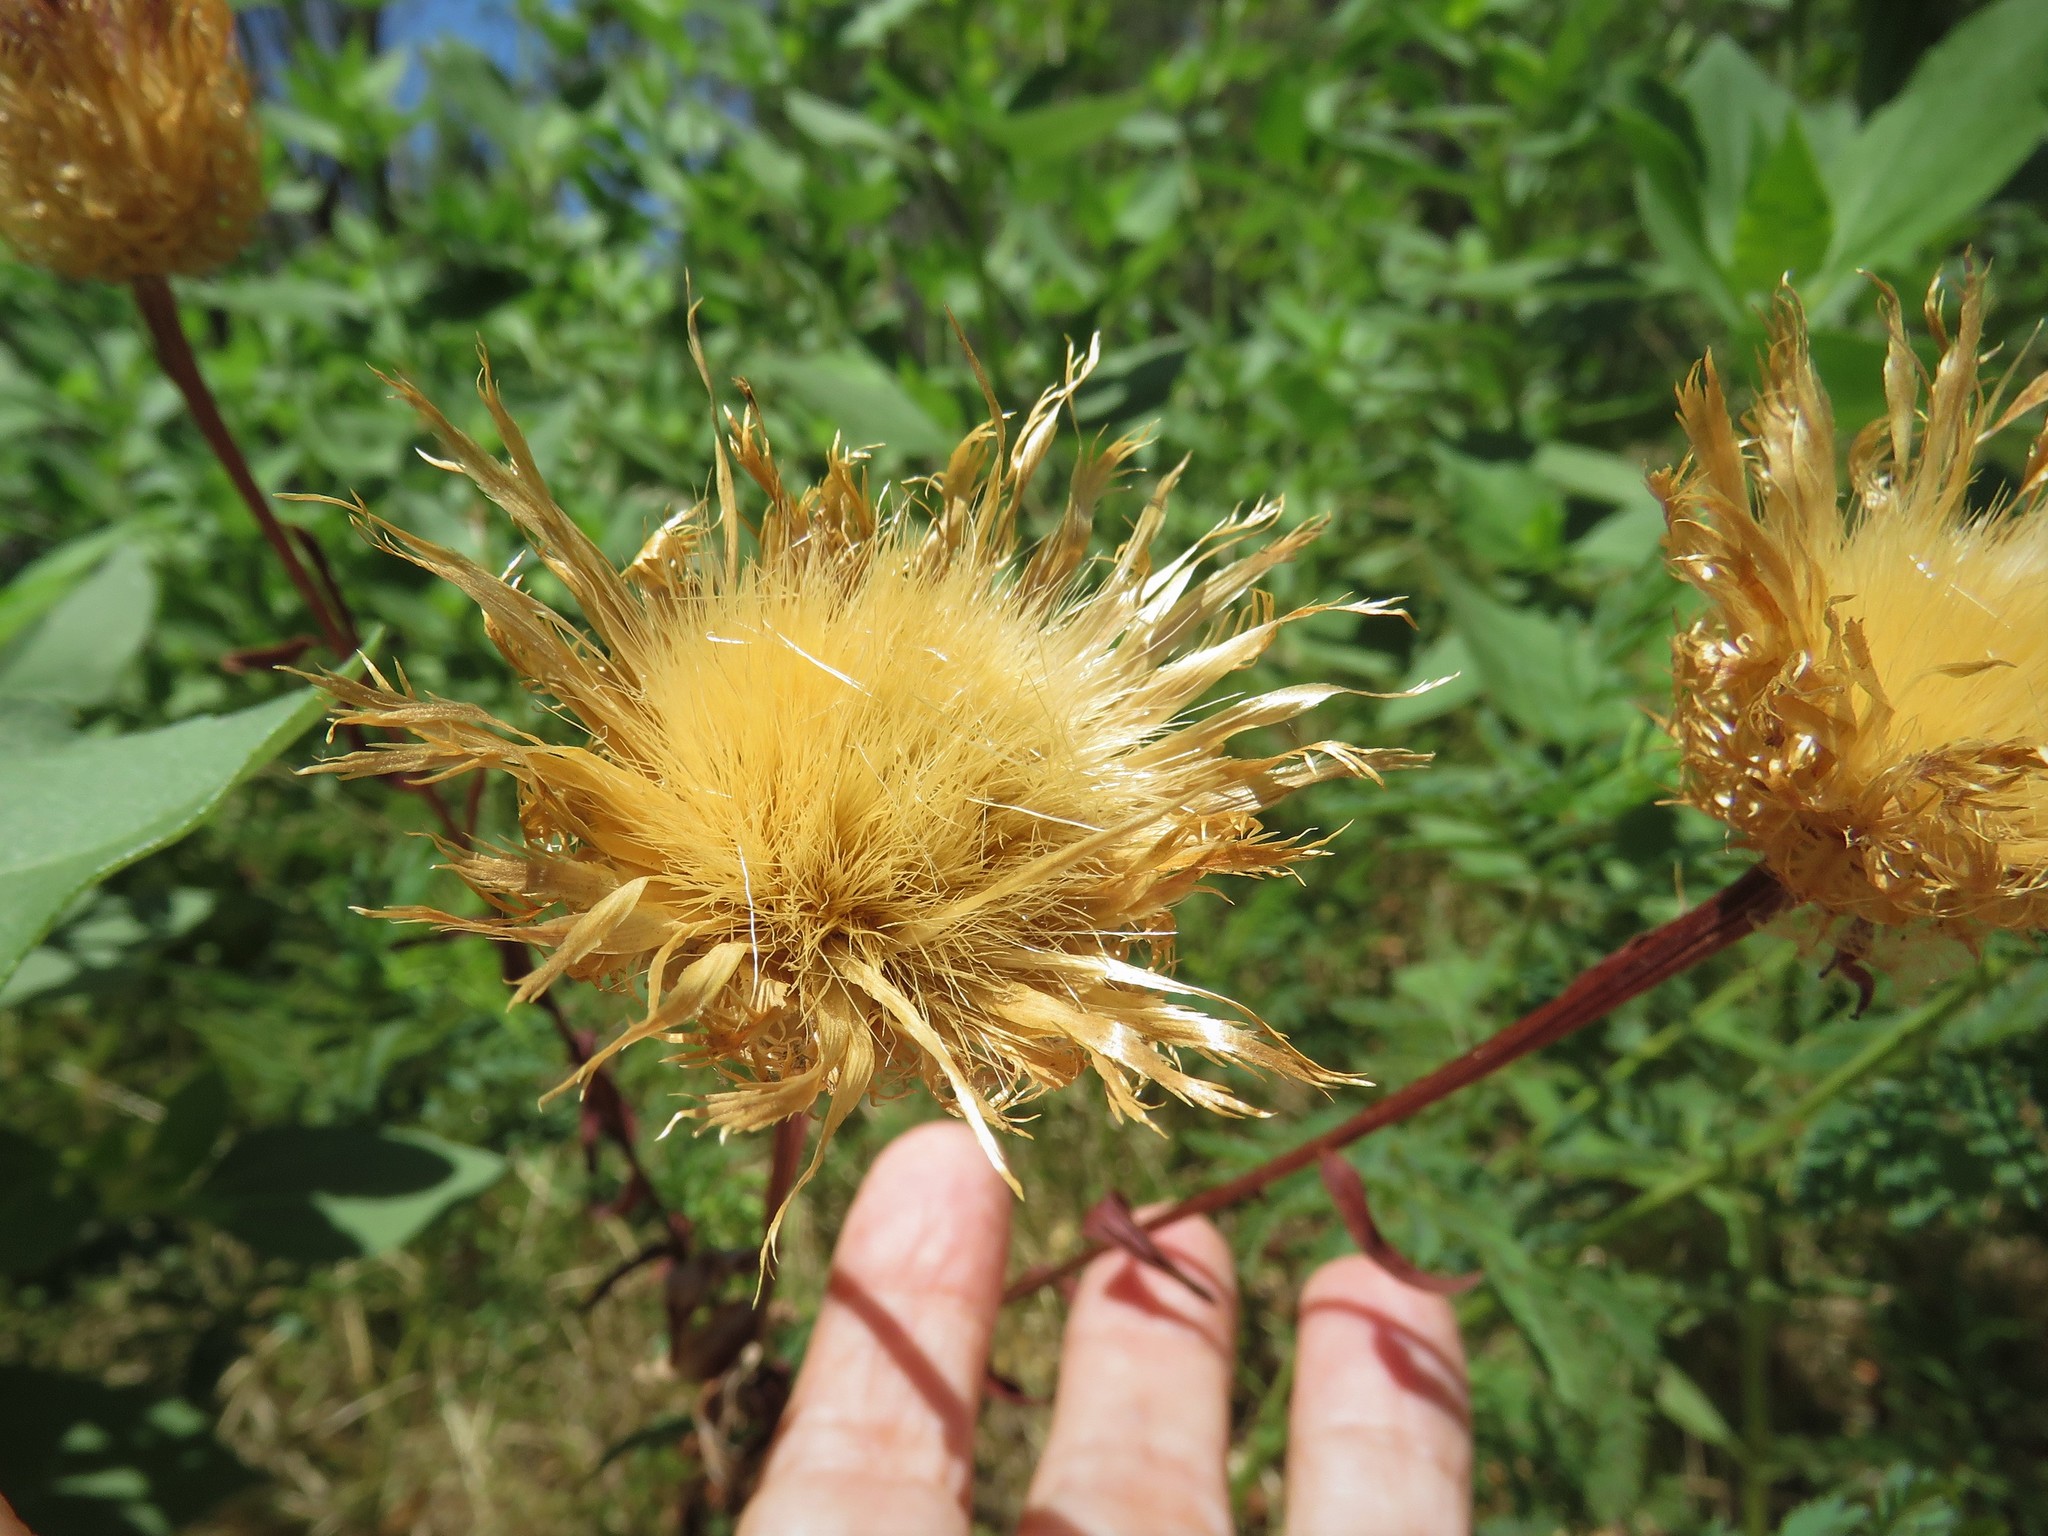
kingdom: Plantae
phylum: Tracheophyta
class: Magnoliopsida
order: Asterales
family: Asteraceae
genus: Plectocephalus
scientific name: Plectocephalus americanus
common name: American basket-flower
